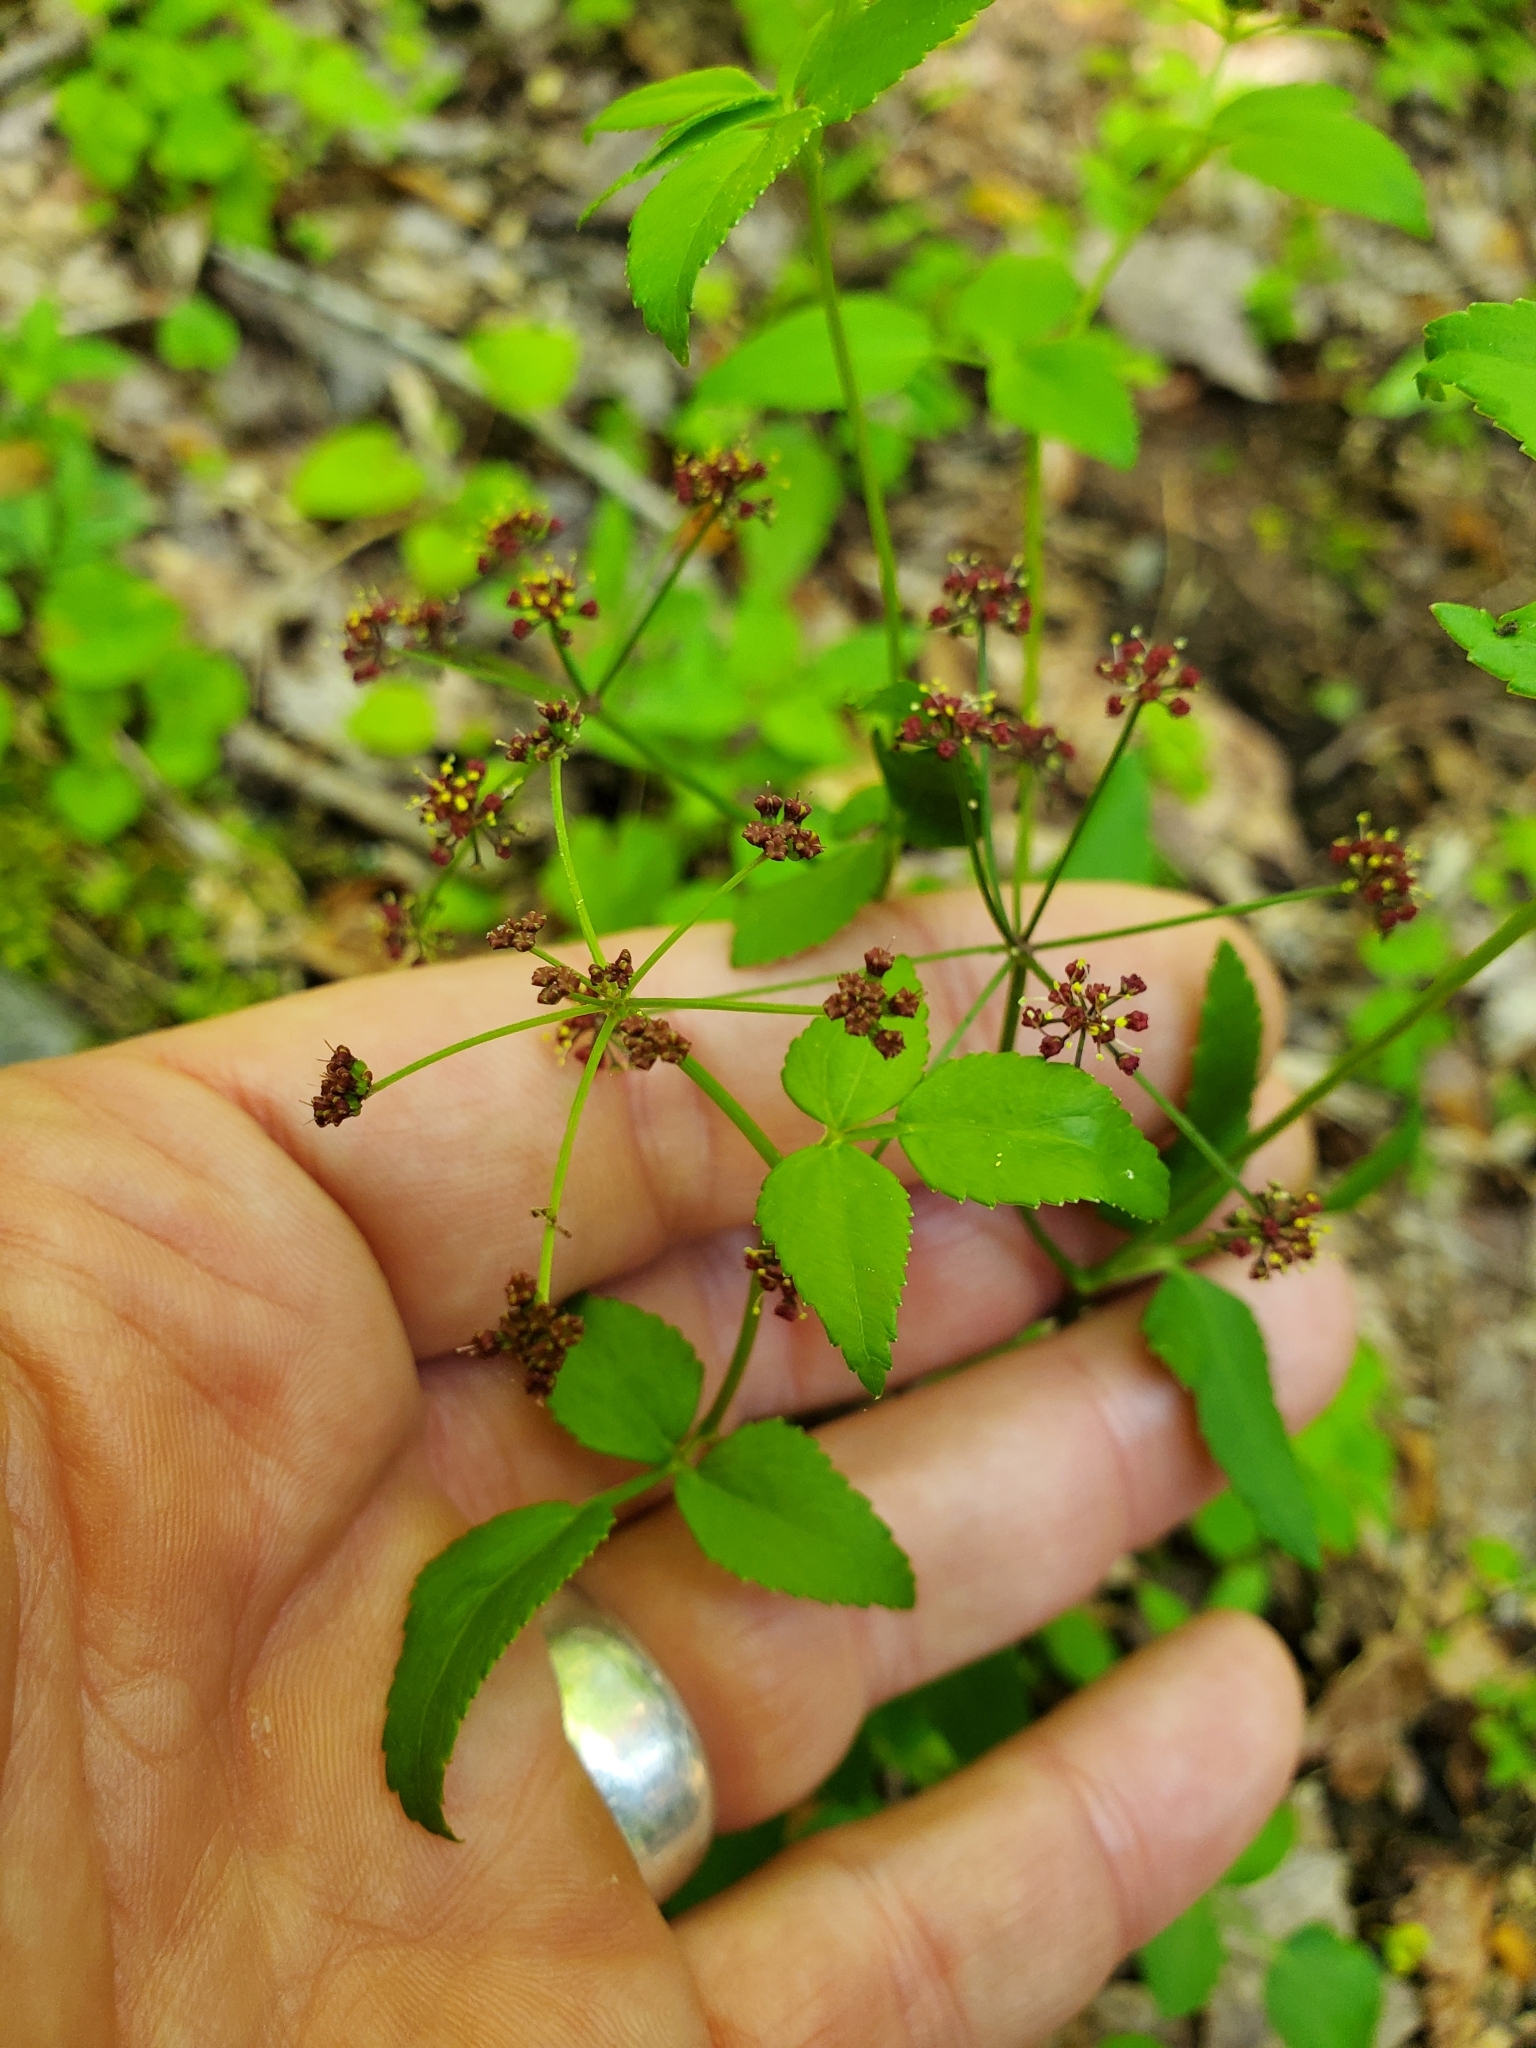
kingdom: Plantae
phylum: Tracheophyta
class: Magnoliopsida
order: Apiales
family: Apiaceae
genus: Thaspium
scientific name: Thaspium trifoliatum
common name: Purple meadow-parsnip
